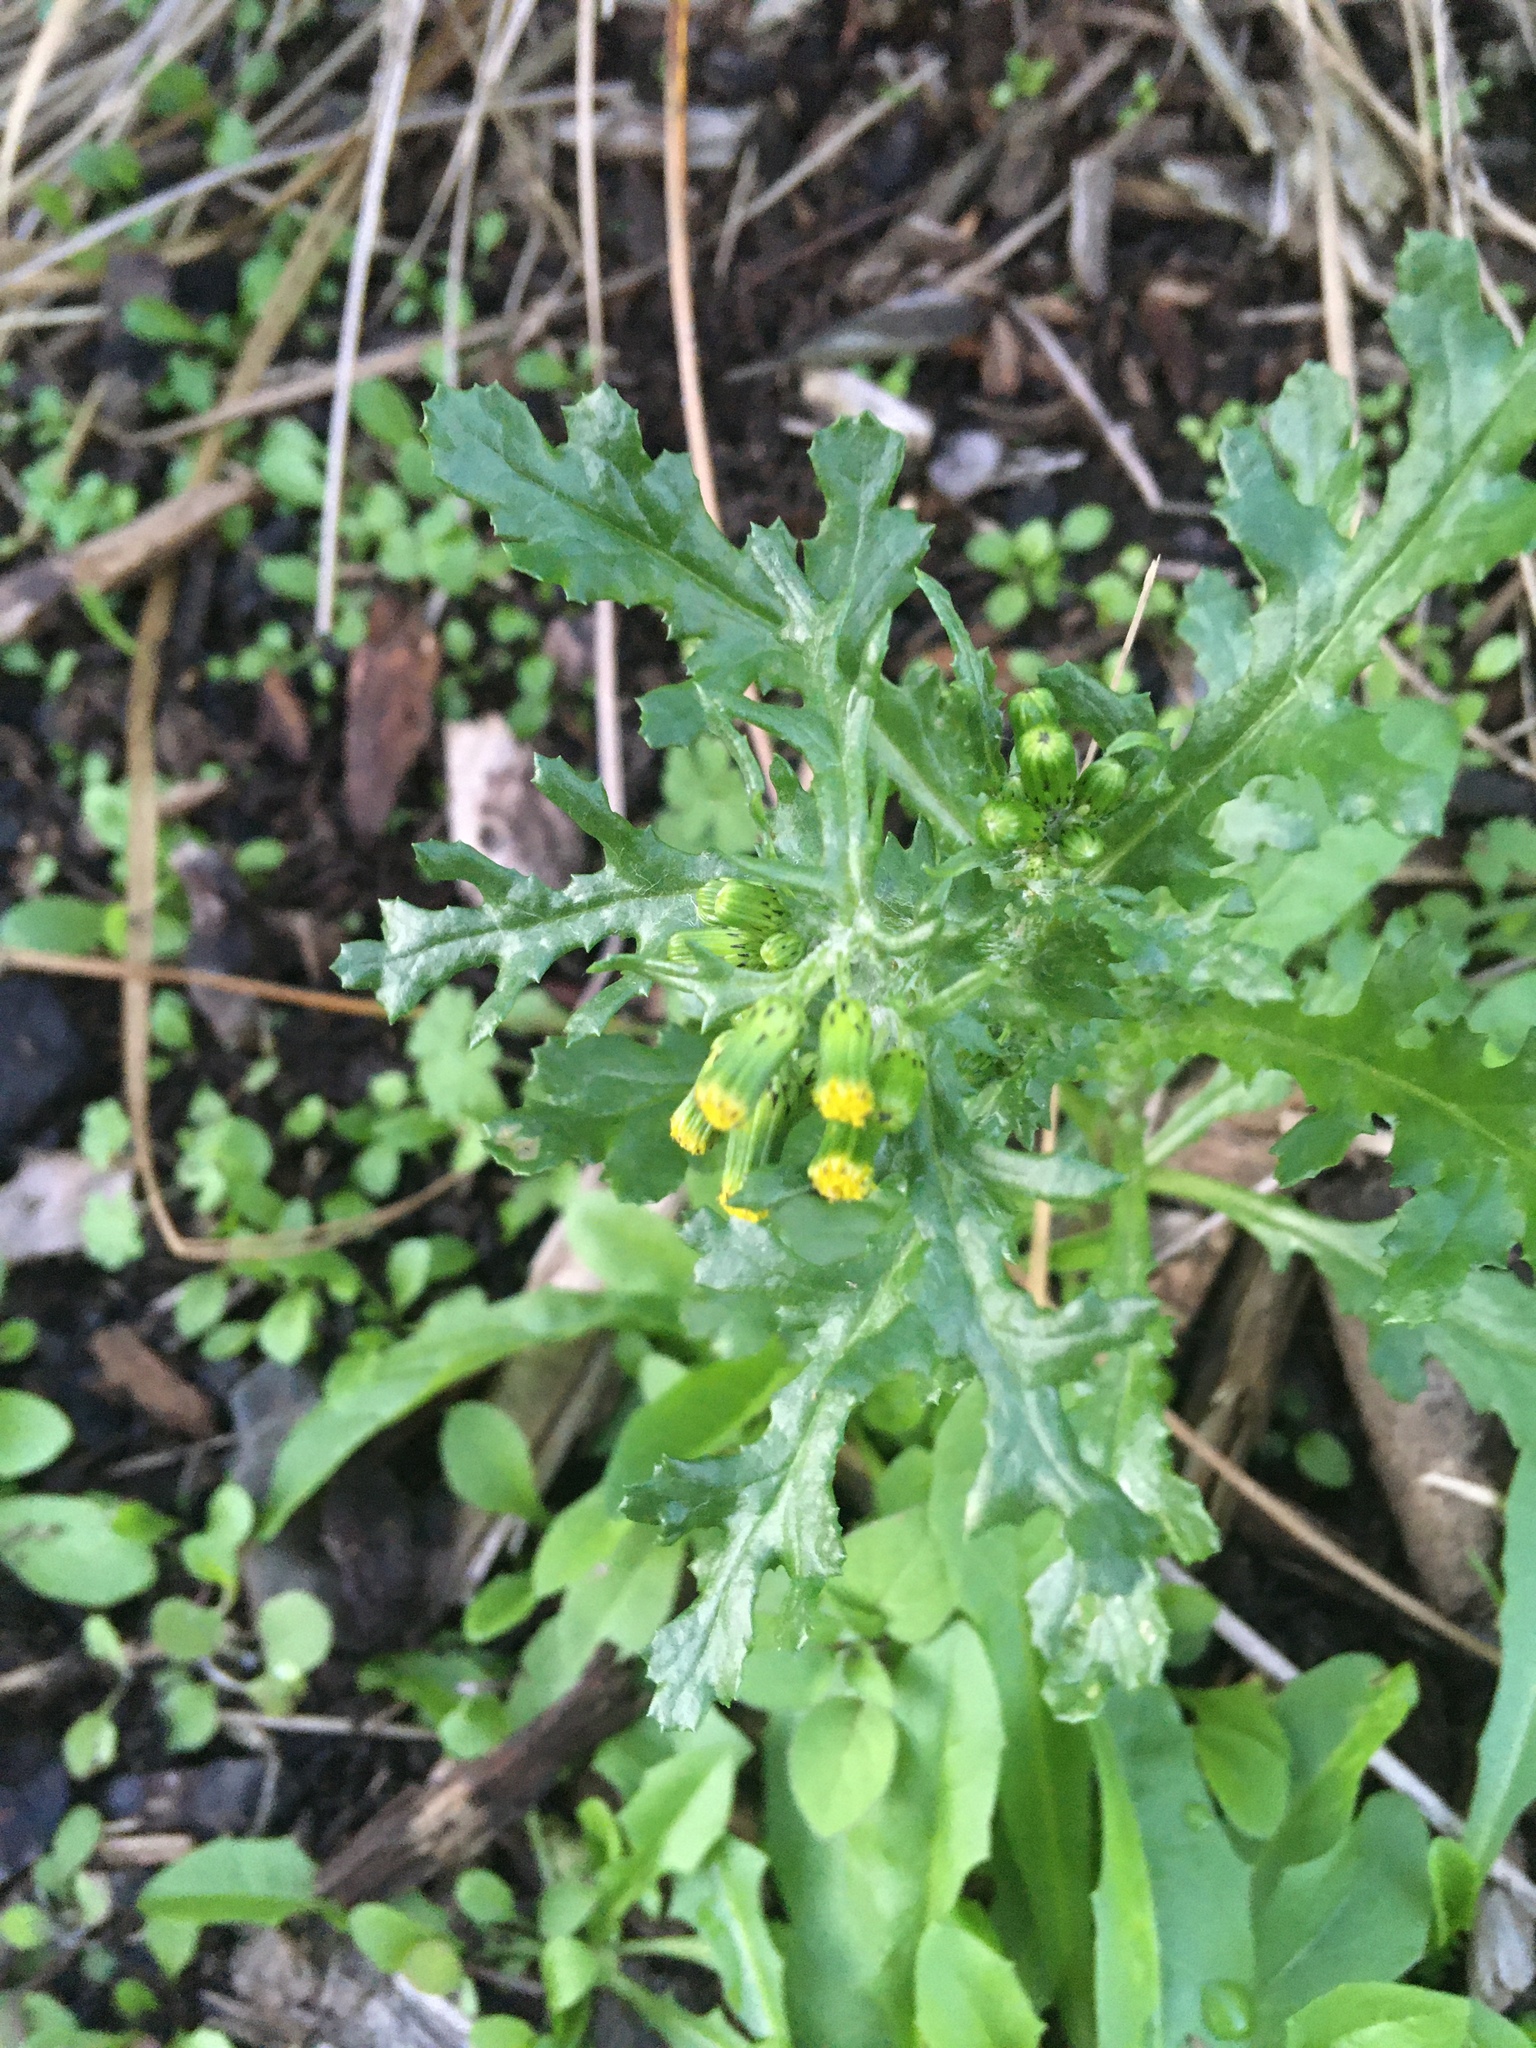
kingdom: Plantae
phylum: Tracheophyta
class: Magnoliopsida
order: Asterales
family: Asteraceae
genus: Senecio
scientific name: Senecio vulgaris
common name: Old-man-in-the-spring
